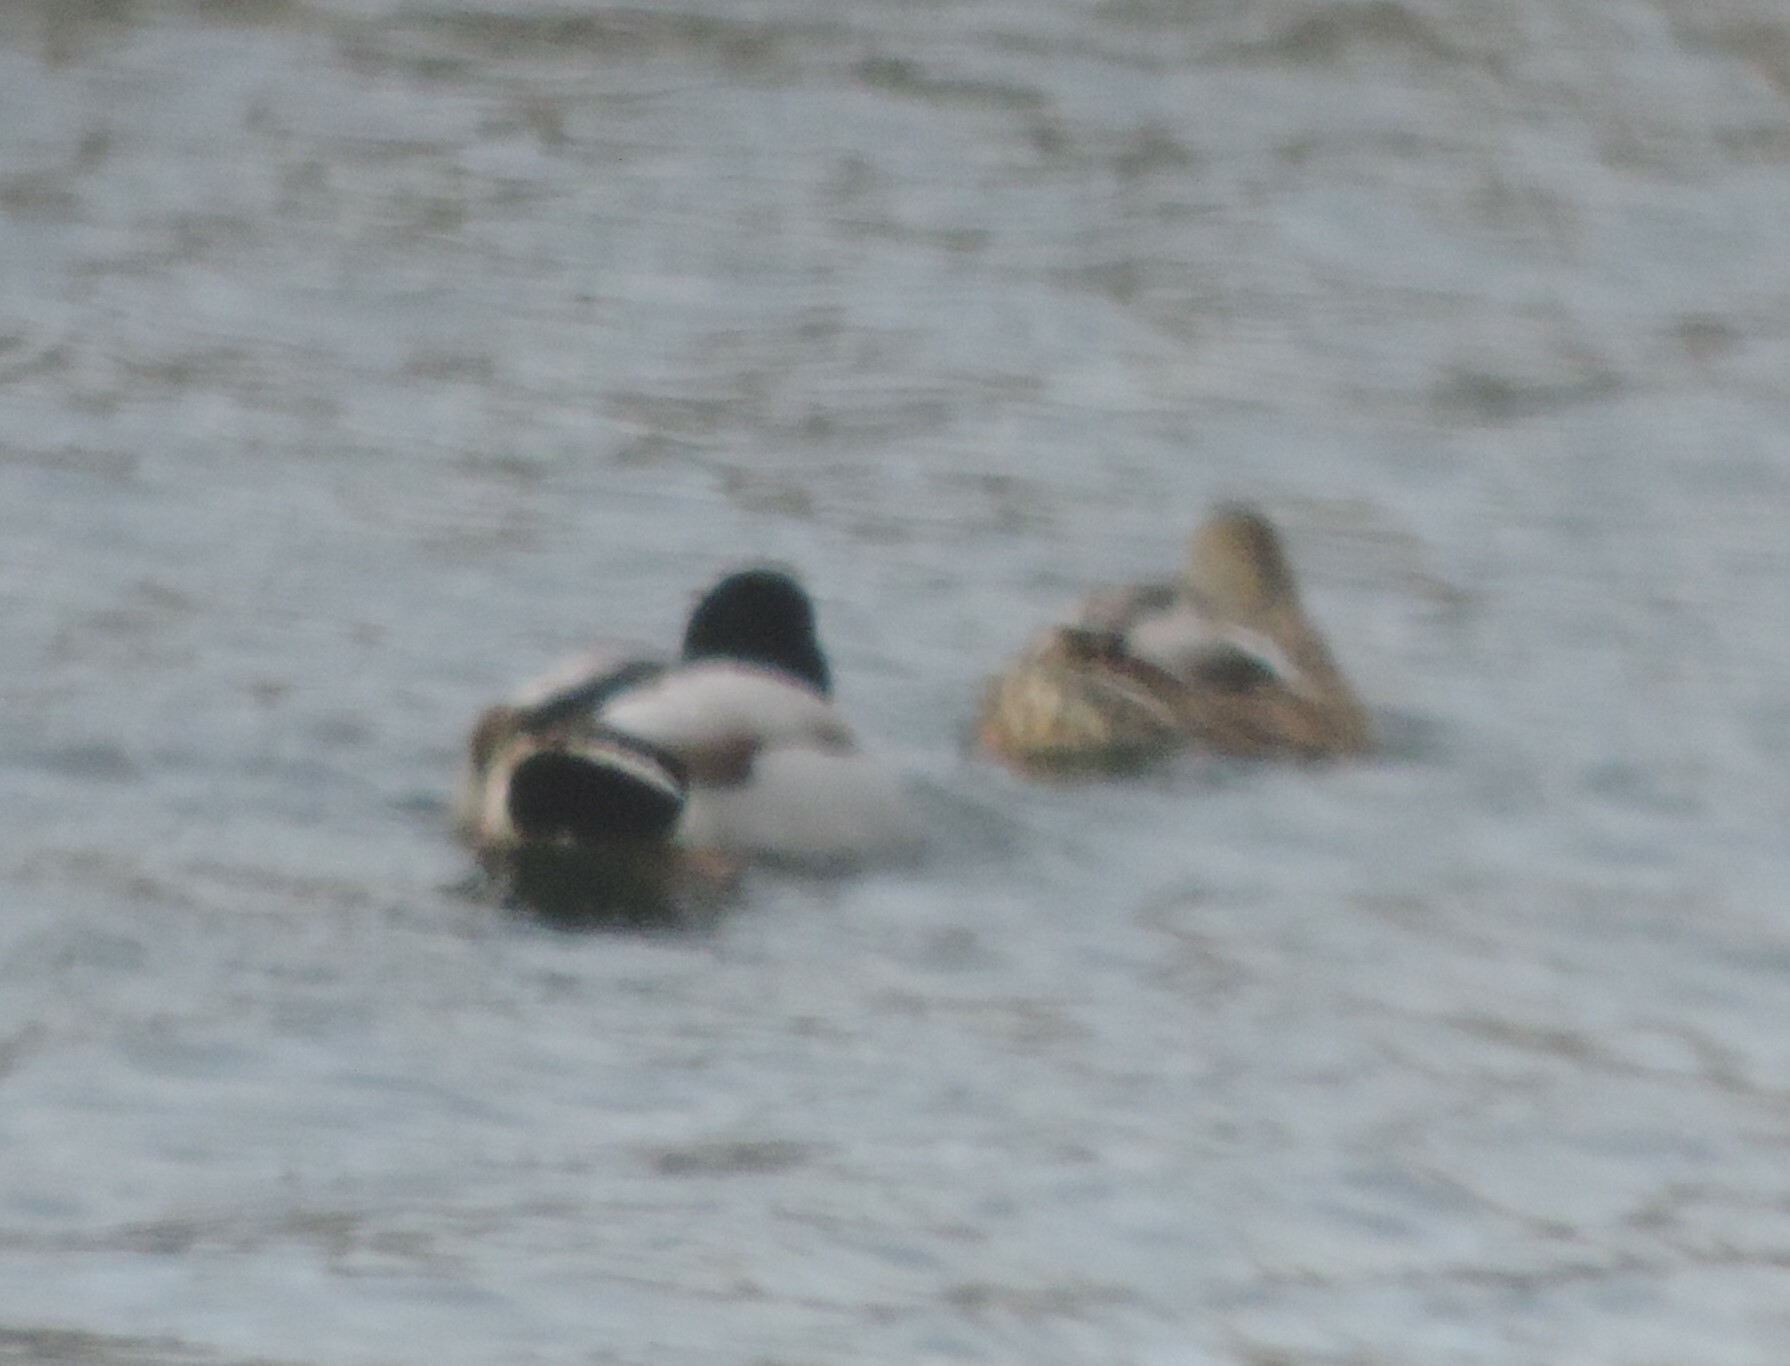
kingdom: Animalia
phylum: Chordata
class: Aves
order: Anseriformes
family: Anatidae
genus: Anas
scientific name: Anas platyrhynchos
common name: Mallard
